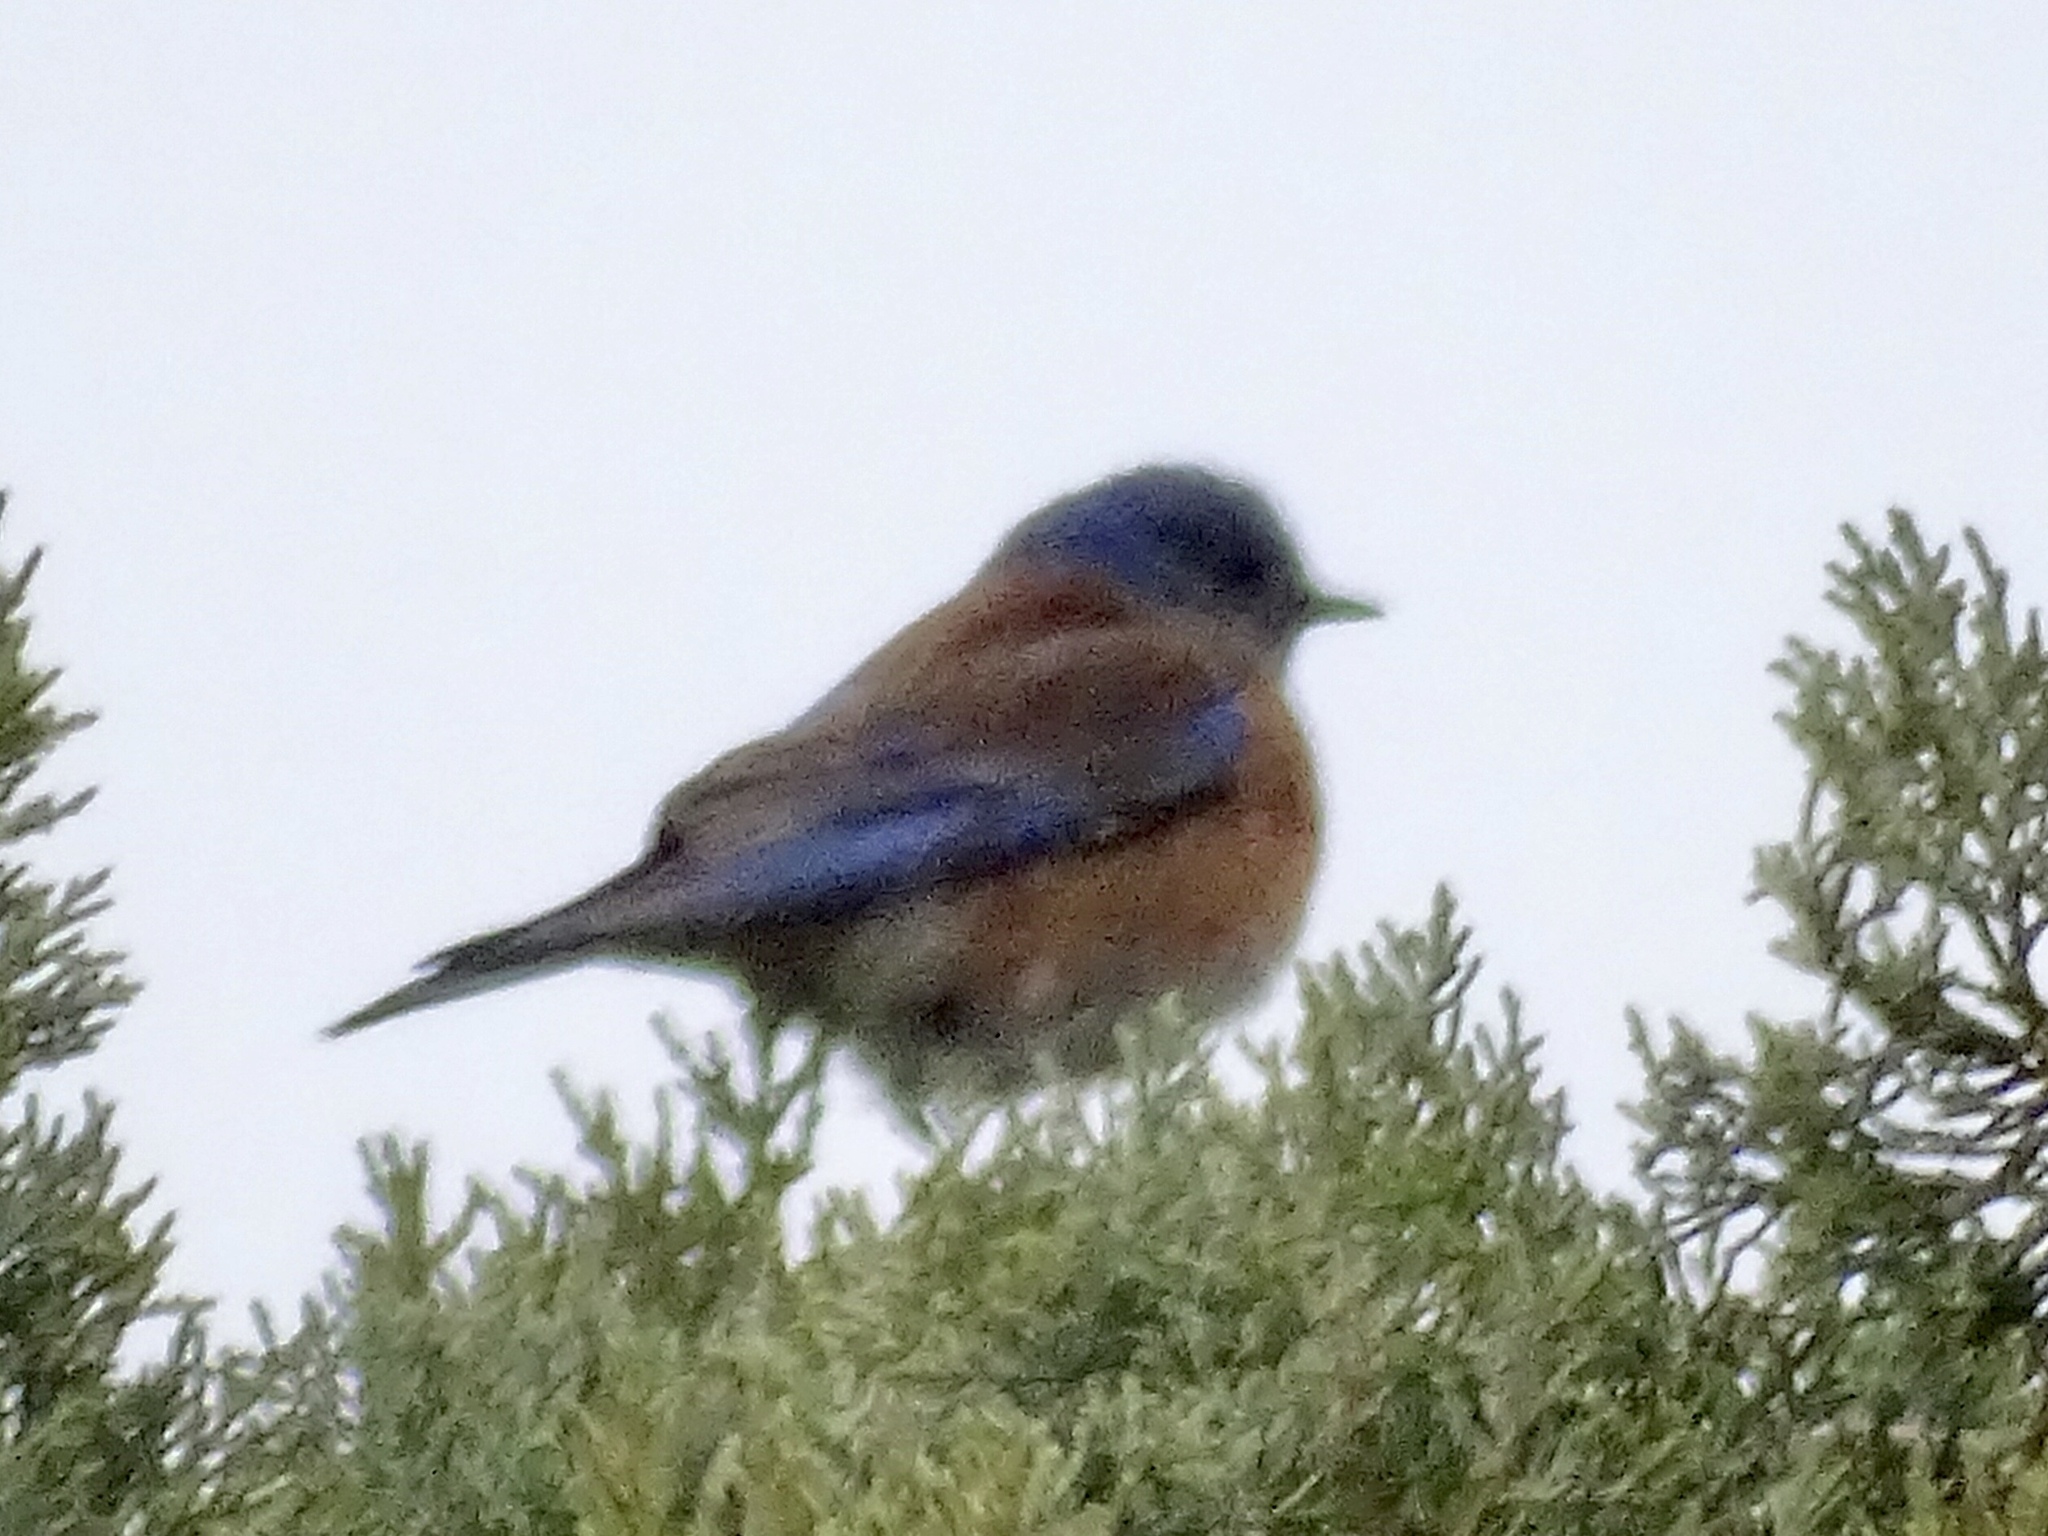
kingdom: Animalia
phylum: Chordata
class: Aves
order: Passeriformes
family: Turdidae
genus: Sialia
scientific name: Sialia mexicana
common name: Western bluebird
